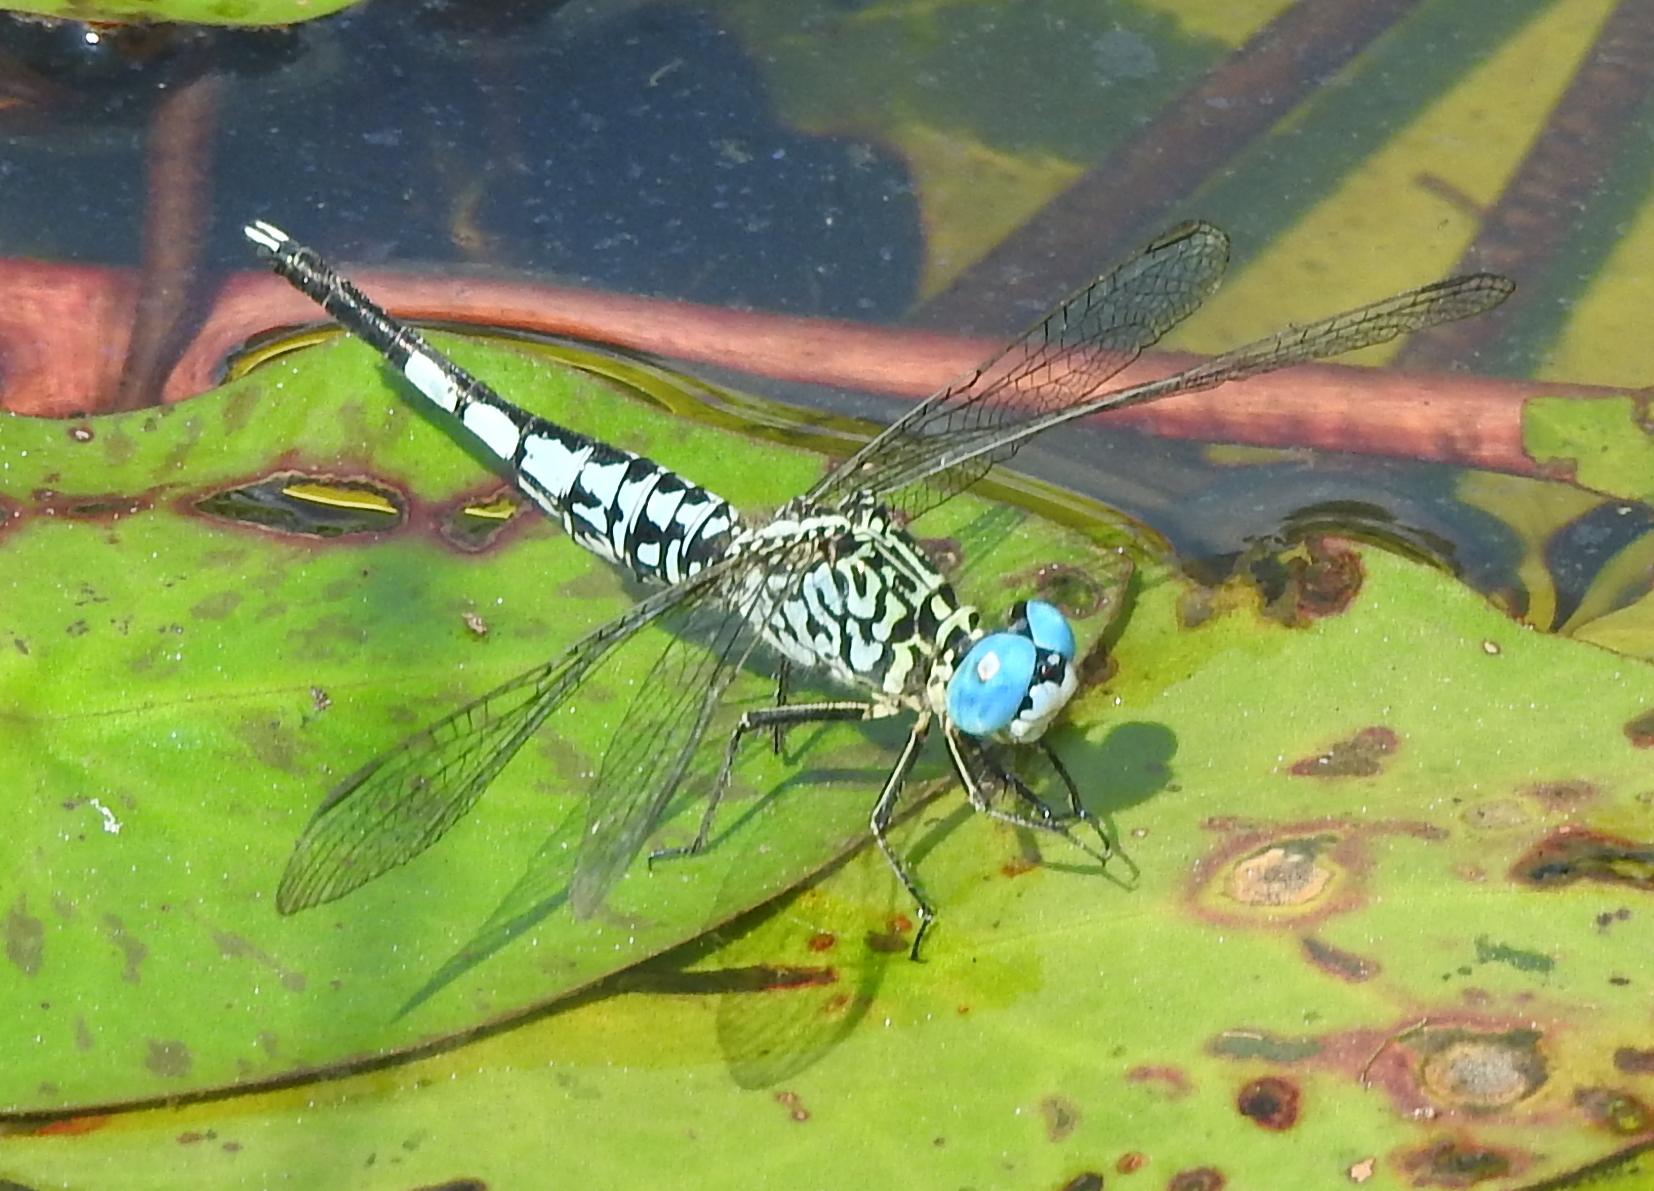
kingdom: Animalia
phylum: Arthropoda
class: Insecta
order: Odonata
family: Libellulidae
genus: Acisoma
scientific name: Acisoma panorpoides
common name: Asian pintail
